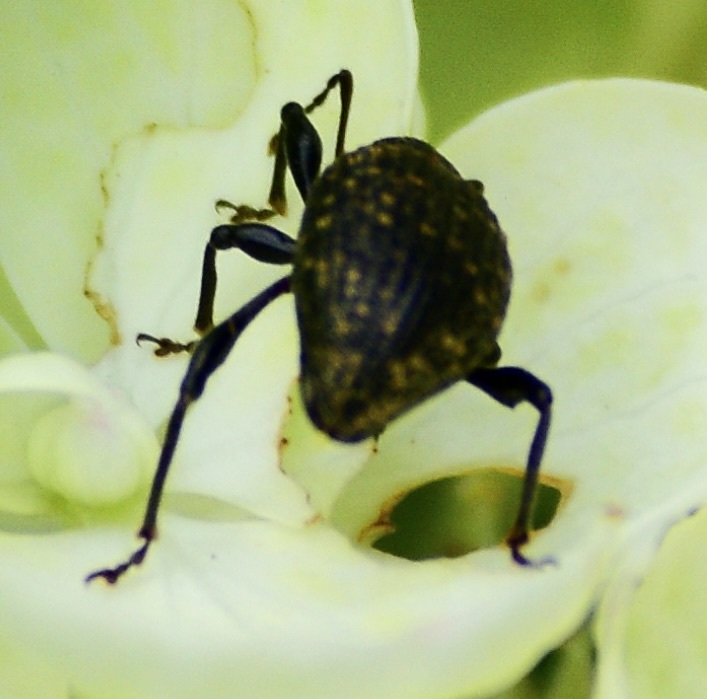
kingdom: Animalia
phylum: Arthropoda
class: Insecta
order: Coleoptera
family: Curculionidae
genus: Otiorhynchus
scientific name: Otiorhynchus sulcatus
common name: Black vine weevil
